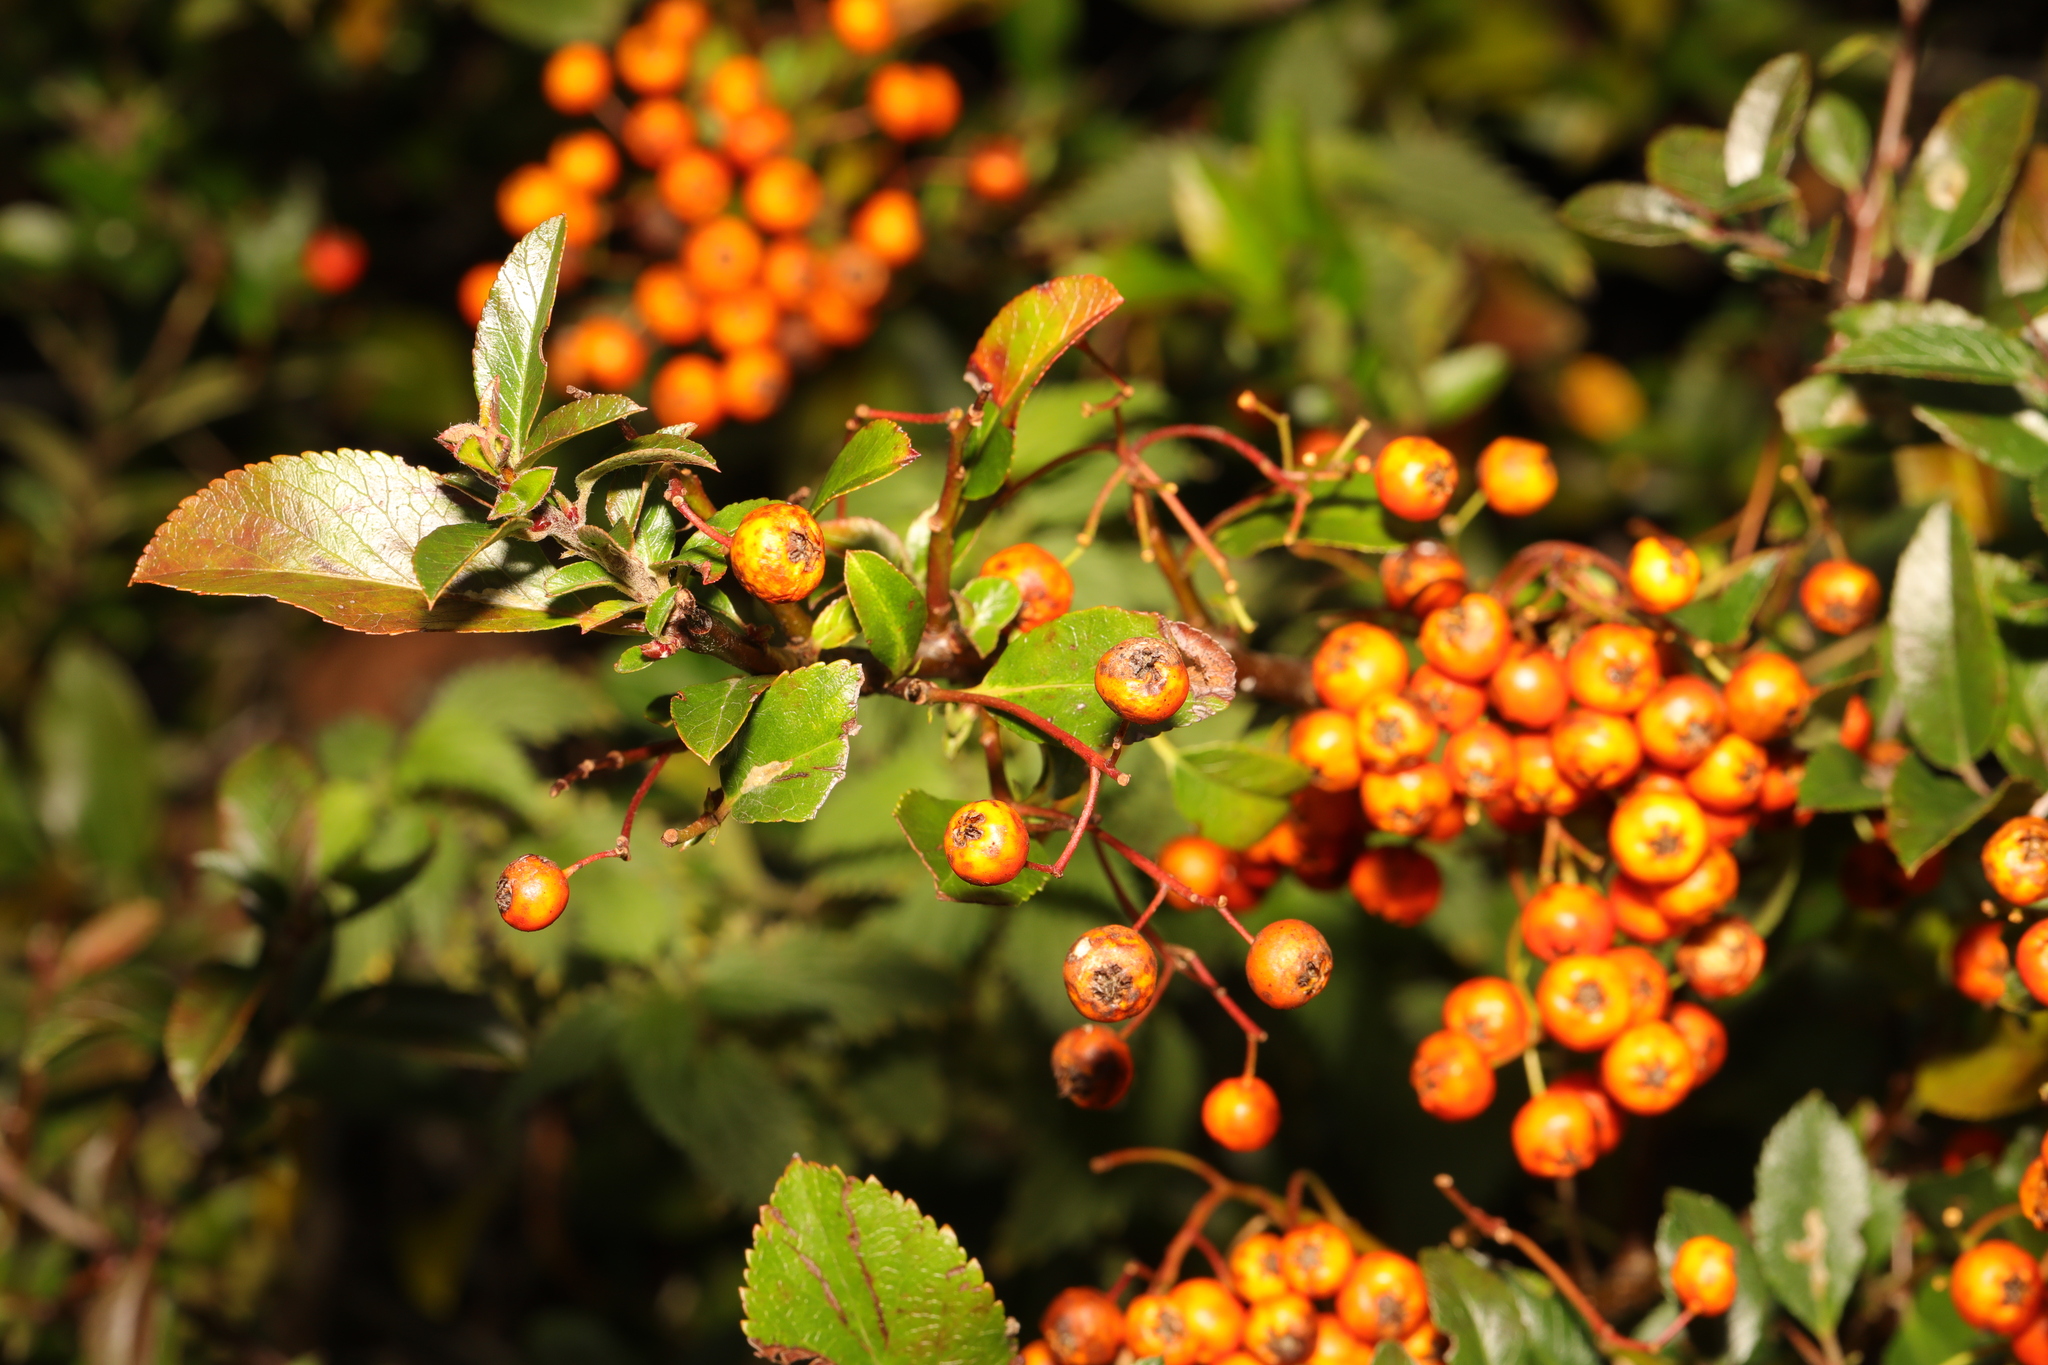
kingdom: Plantae
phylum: Tracheophyta
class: Magnoliopsida
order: Rosales
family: Rosaceae
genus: Pyracantha
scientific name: Pyracantha coccinea
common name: Firethorn
